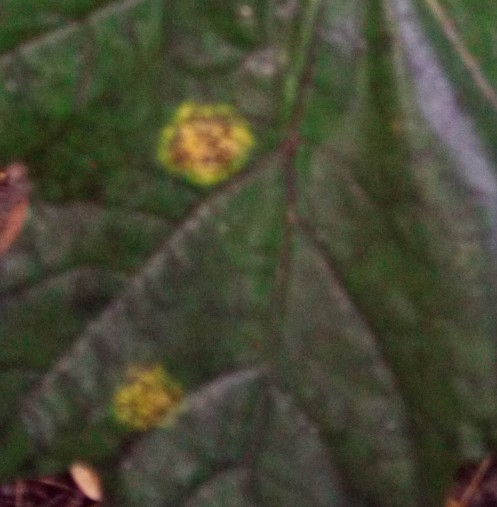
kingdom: Fungi
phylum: Ascomycota
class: Leotiomycetes
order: Rhytismatales
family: Rhytismataceae
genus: Rhytisma
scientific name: Rhytisma acerinum
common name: European tar spot
